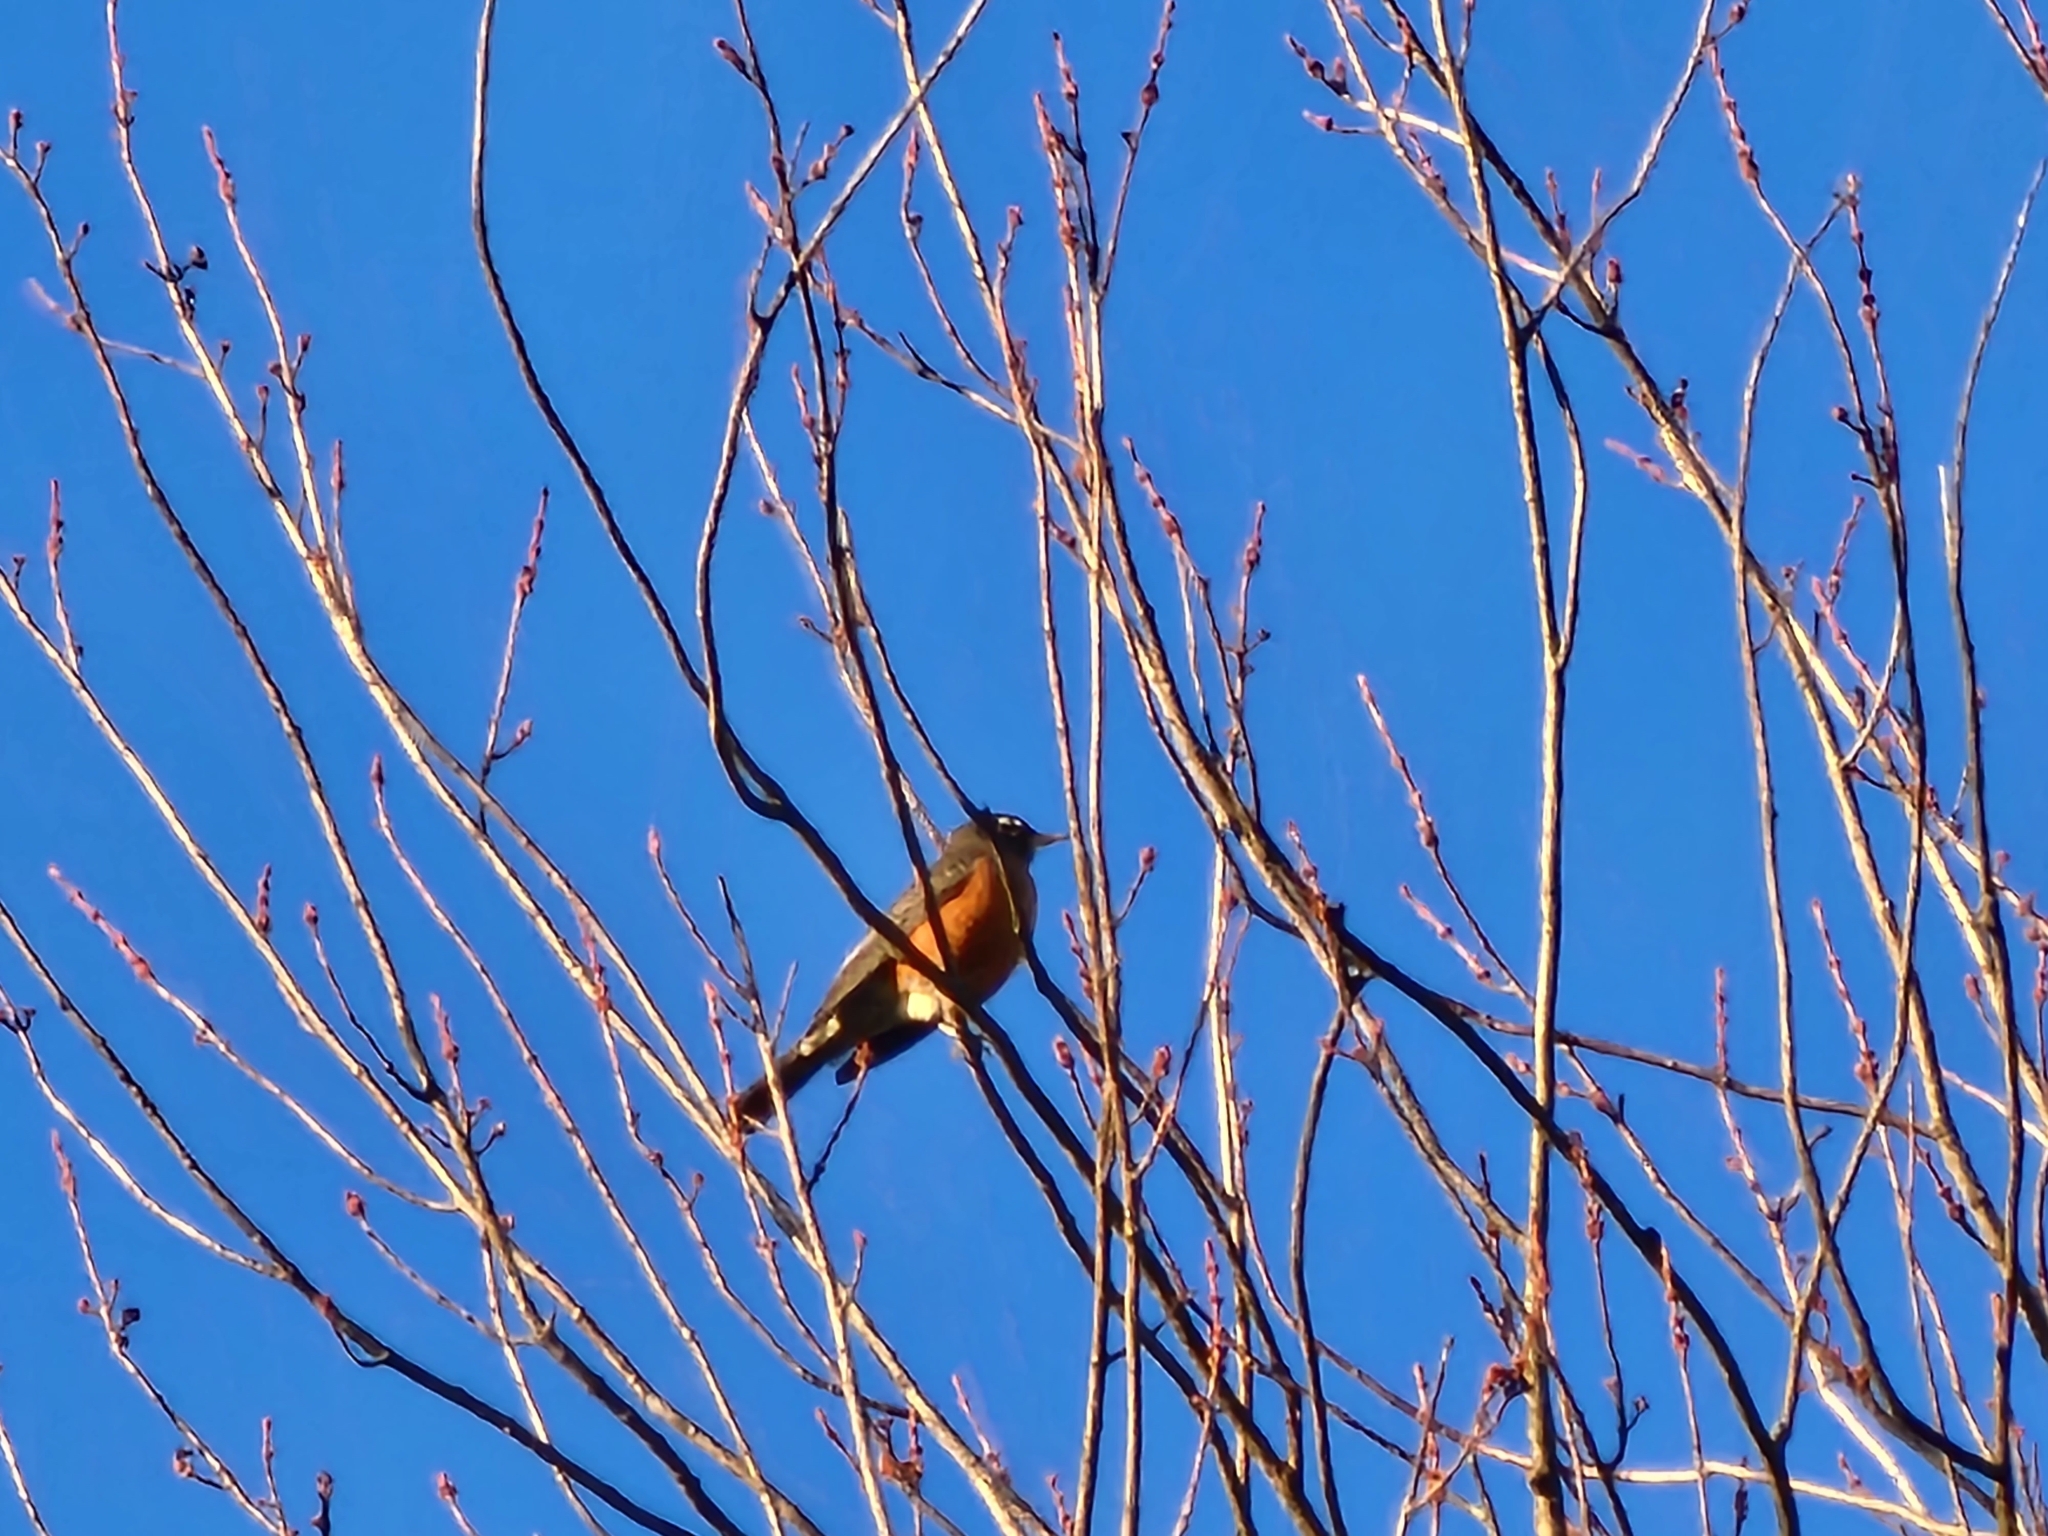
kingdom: Animalia
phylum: Chordata
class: Aves
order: Passeriformes
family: Turdidae
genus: Turdus
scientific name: Turdus migratorius
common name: American robin
